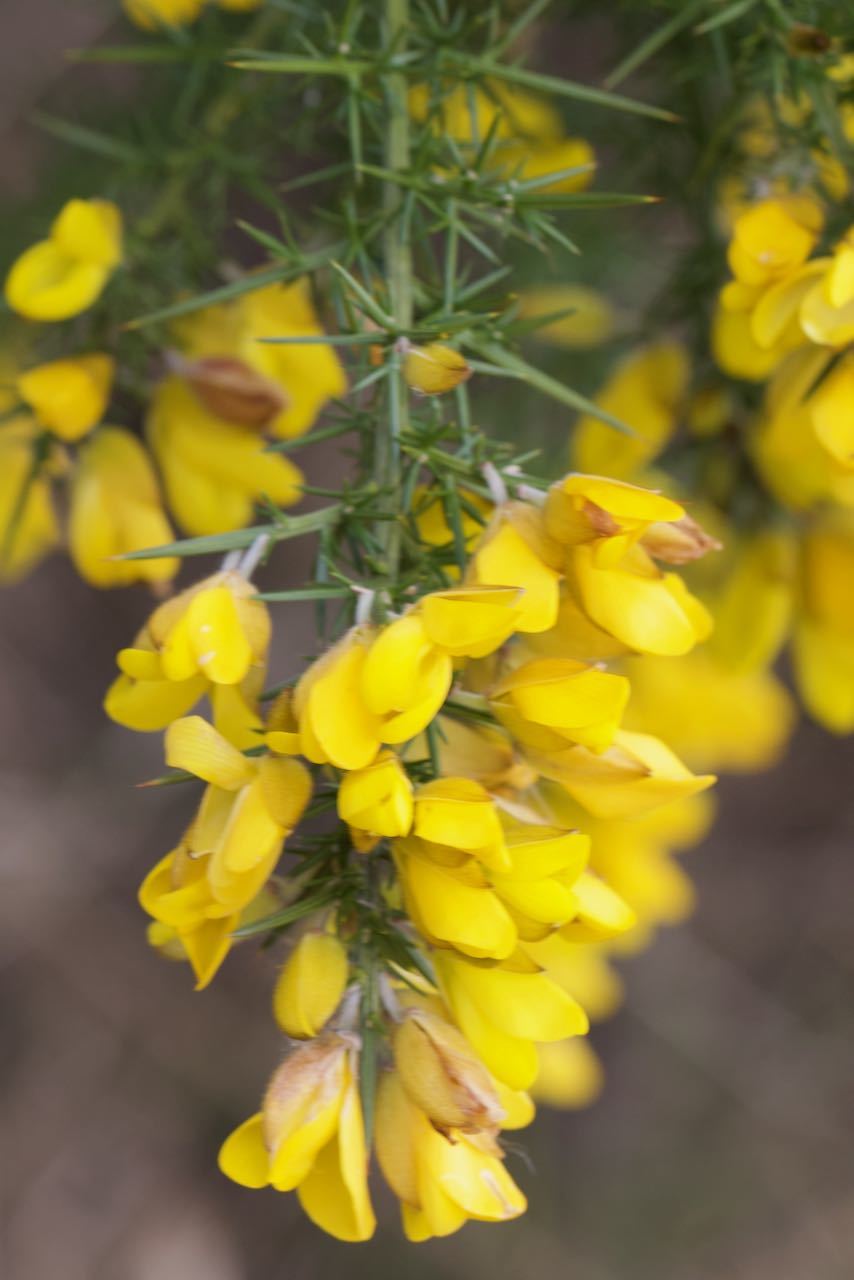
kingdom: Plantae
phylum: Tracheophyta
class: Magnoliopsida
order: Fabales
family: Fabaceae
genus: Ulex
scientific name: Ulex europaeus
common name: Common gorse
